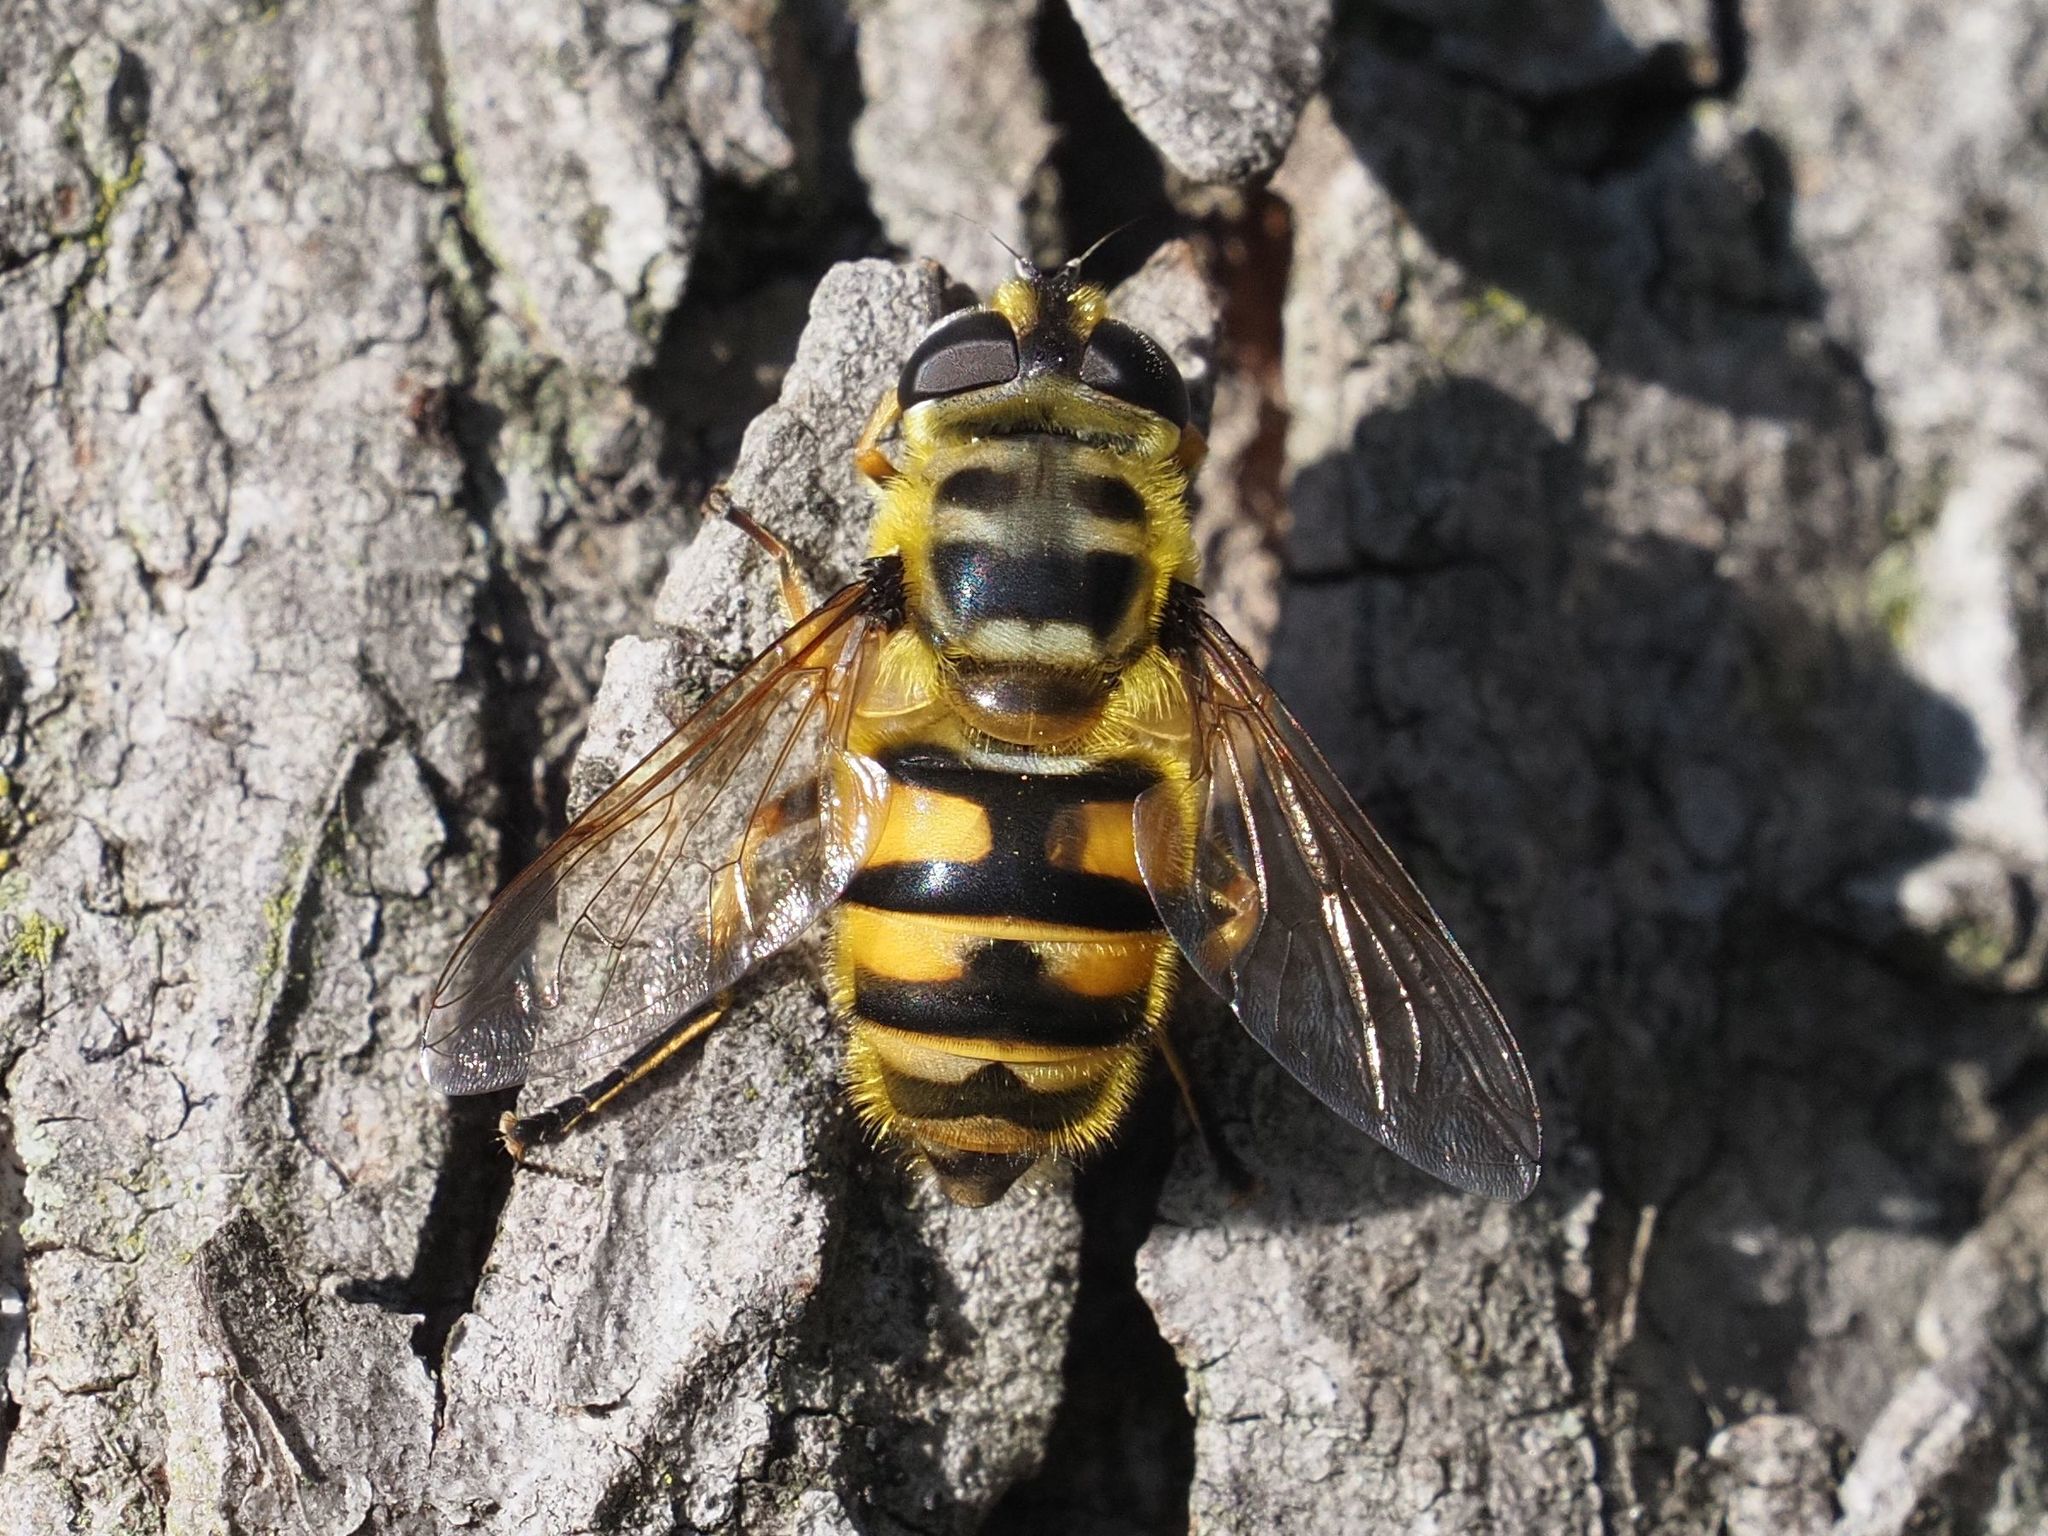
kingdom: Animalia
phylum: Arthropoda
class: Insecta
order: Diptera
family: Syrphidae
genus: Myathropa
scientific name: Myathropa florea
